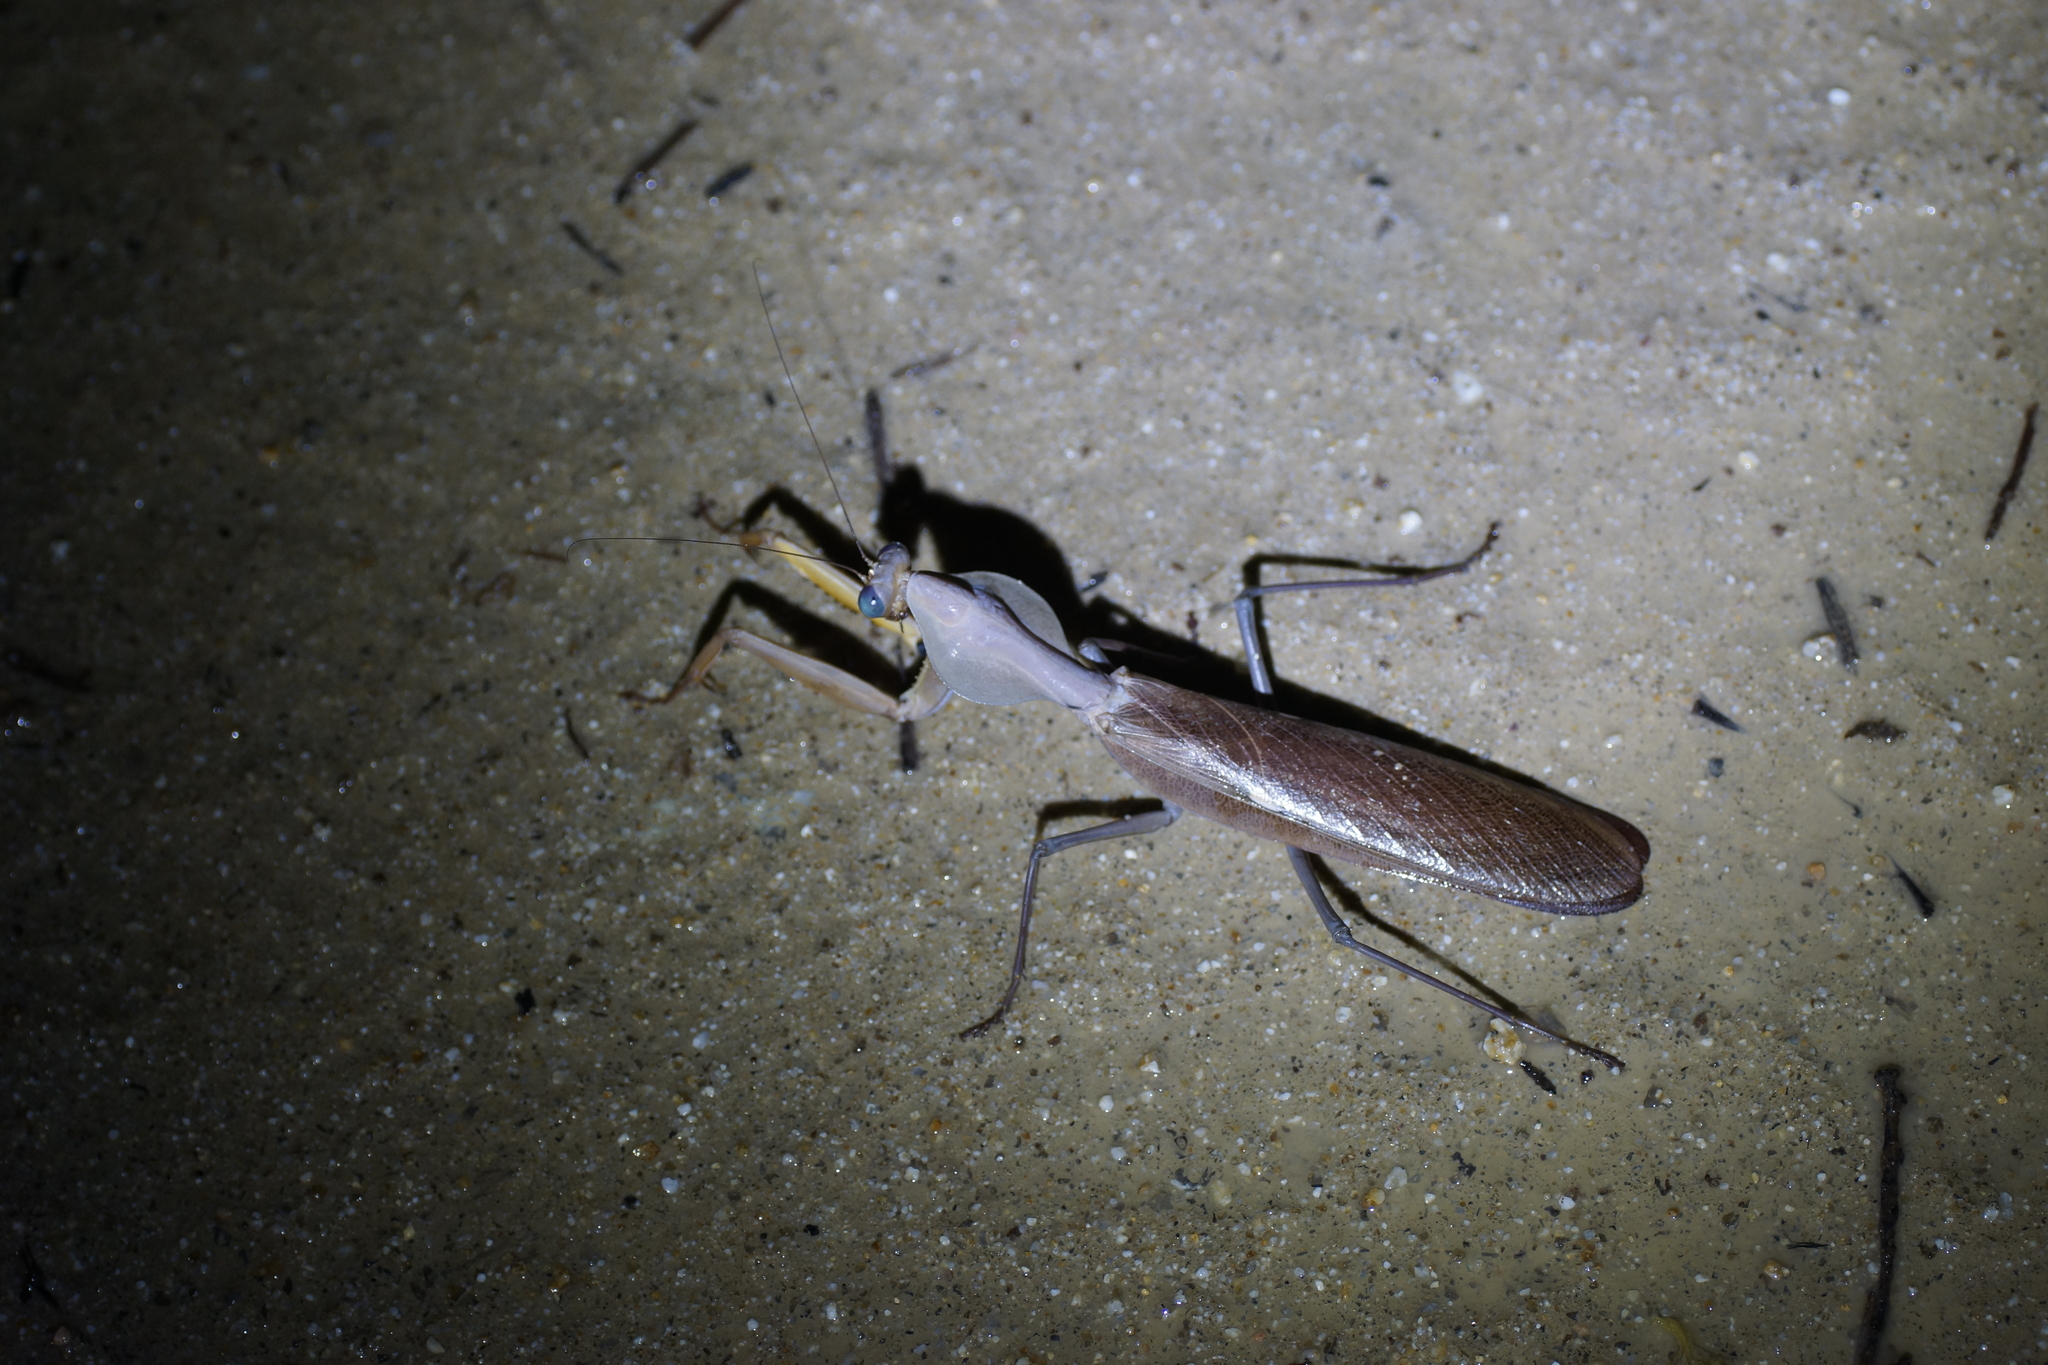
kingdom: Animalia
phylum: Arthropoda
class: Insecta
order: Mantodea
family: Mantidae
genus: Tamolanica
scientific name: Tamolanica atricoxis
